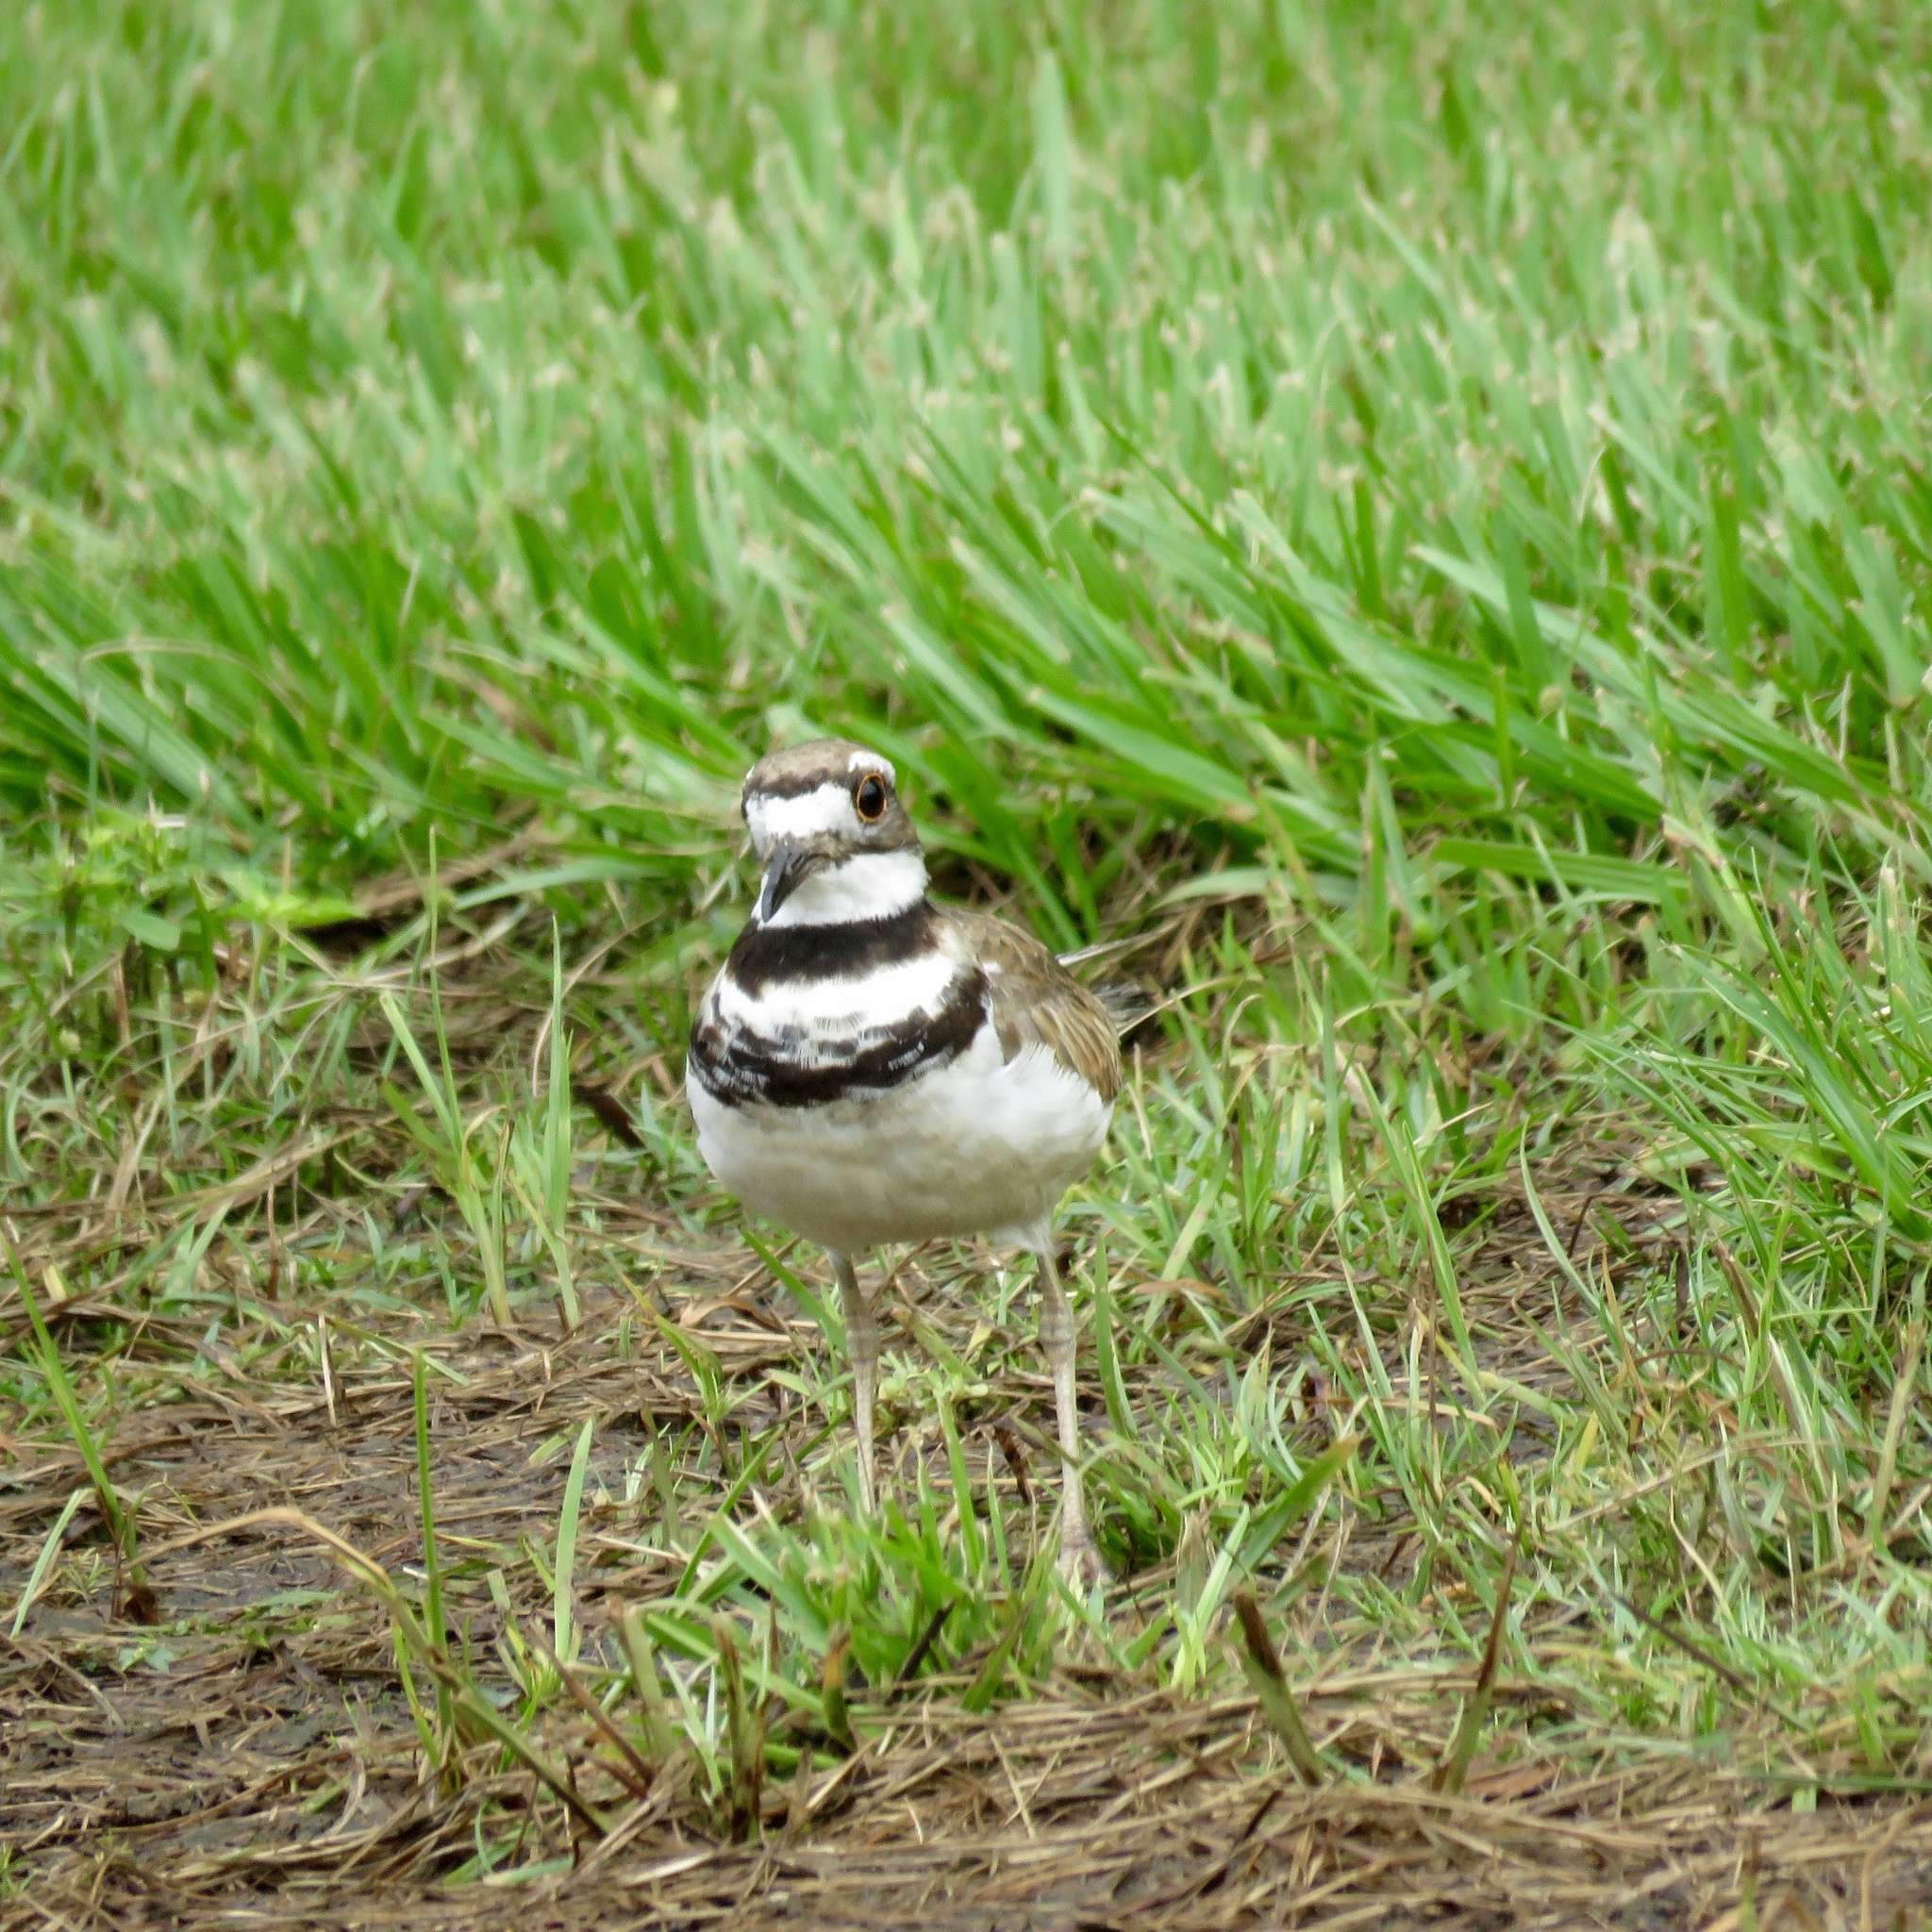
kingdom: Animalia
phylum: Chordata
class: Aves
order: Charadriiformes
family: Charadriidae
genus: Charadrius
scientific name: Charadrius vociferus
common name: Killdeer
